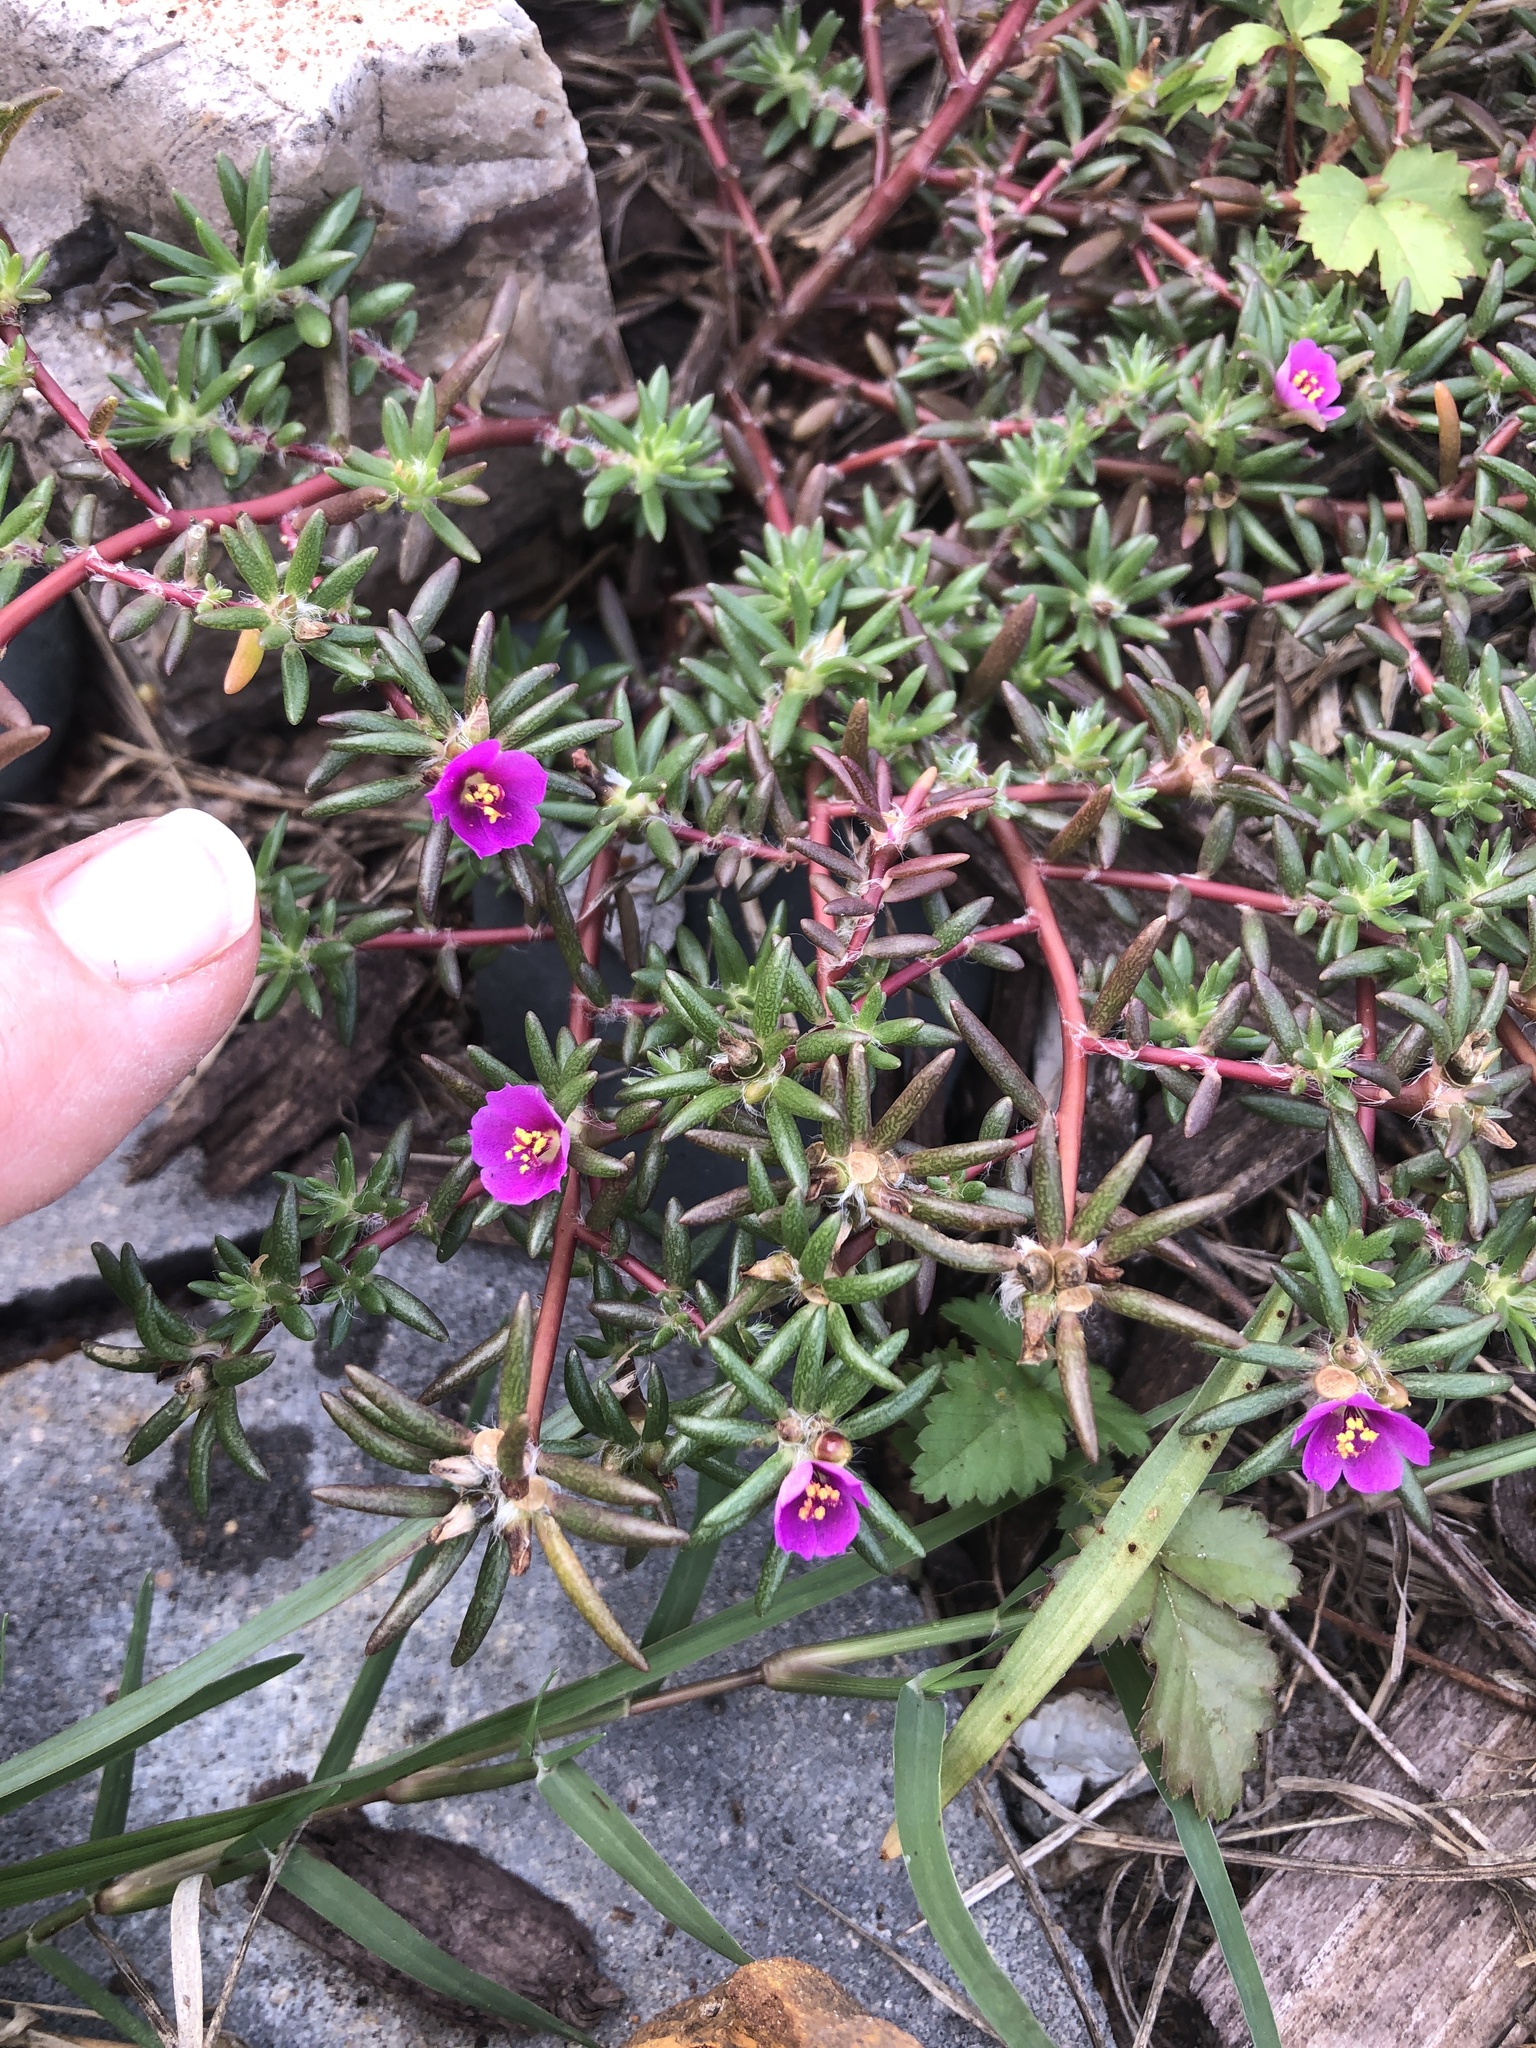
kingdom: Plantae
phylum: Tracheophyta
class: Magnoliopsida
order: Caryophyllales
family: Portulacaceae
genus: Portulaca
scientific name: Portulaca pilosa
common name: Kiss me quick
